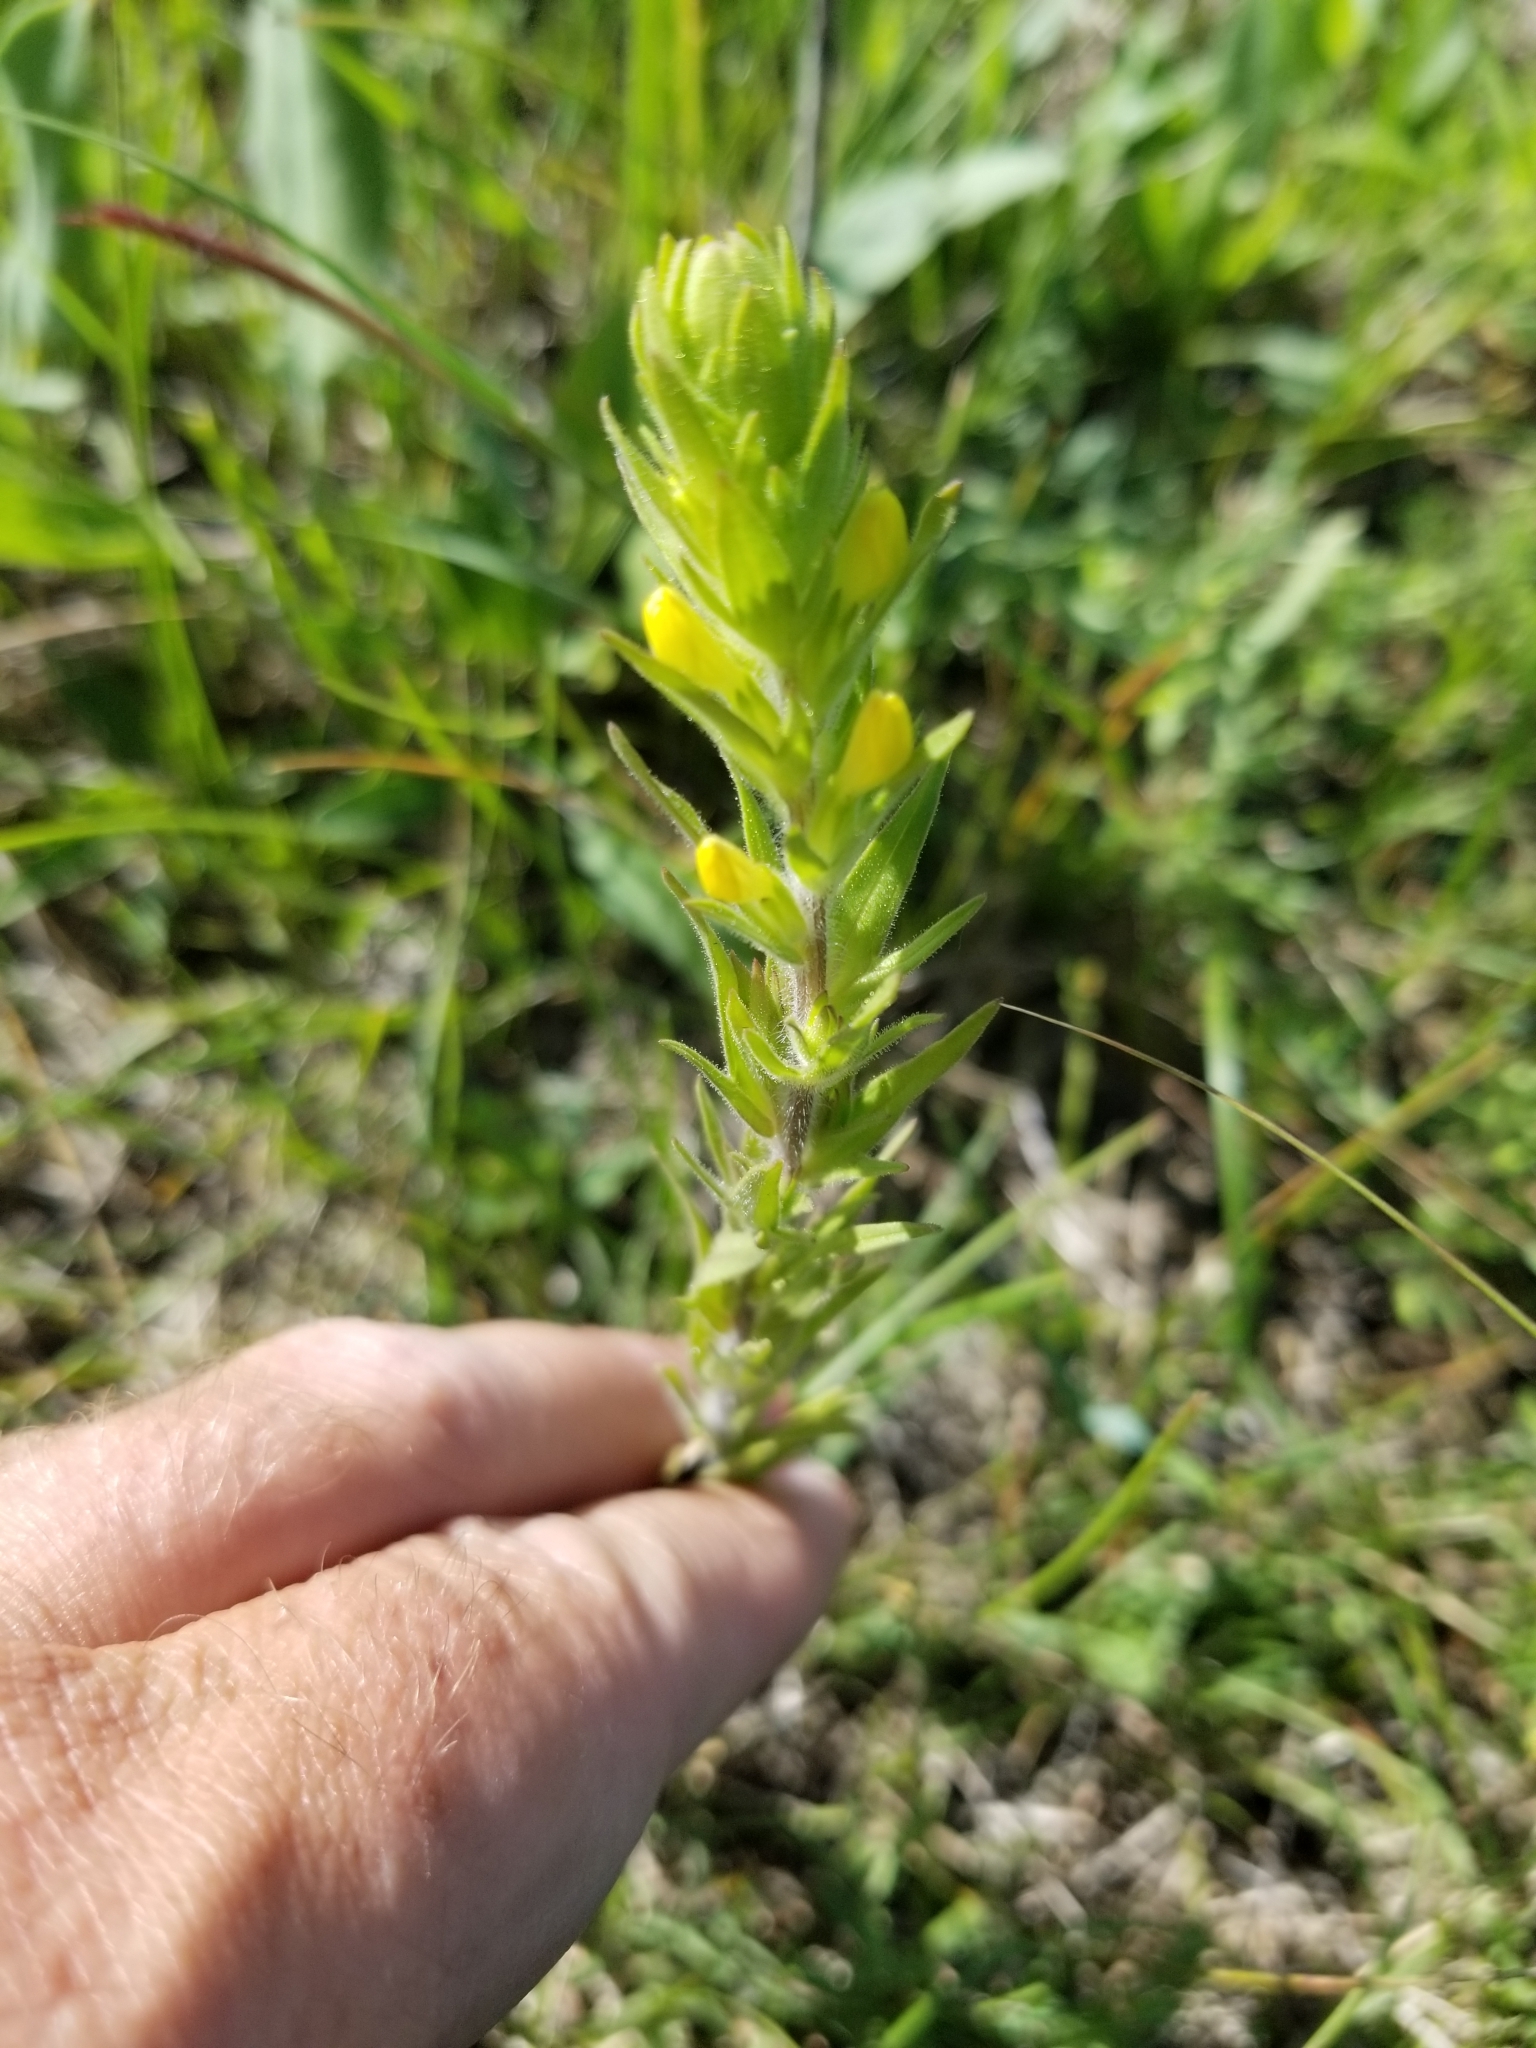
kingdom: Plantae
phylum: Tracheophyta
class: Magnoliopsida
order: Lamiales
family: Orobanchaceae
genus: Orthocarpus
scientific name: Orthocarpus luteus
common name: Golden-tongue owl's-clover
